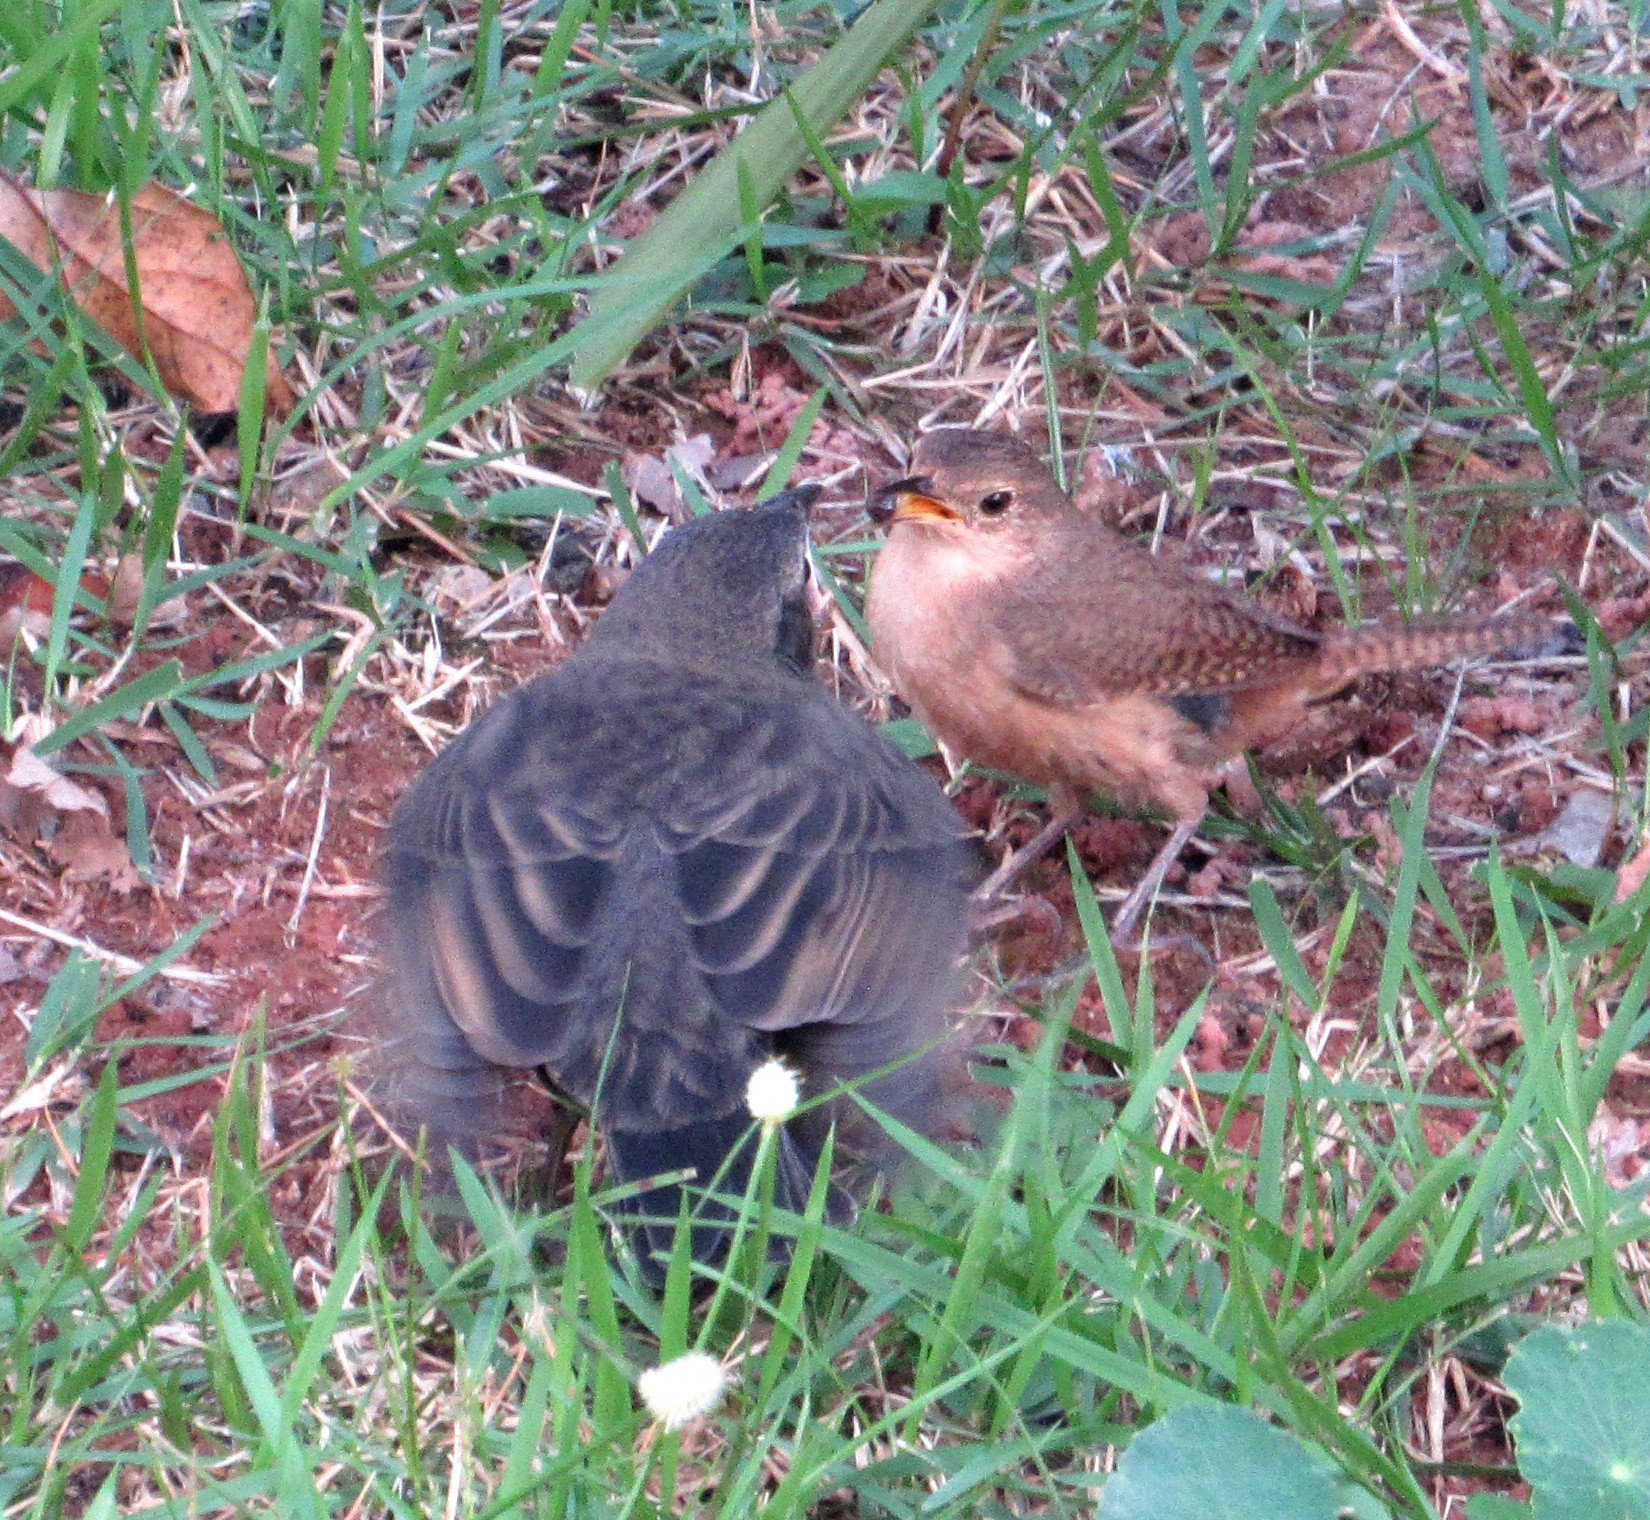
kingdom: Animalia
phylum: Chordata
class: Aves
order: Passeriformes
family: Icteridae
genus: Molothrus
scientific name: Molothrus bonariensis
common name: Shiny cowbird
